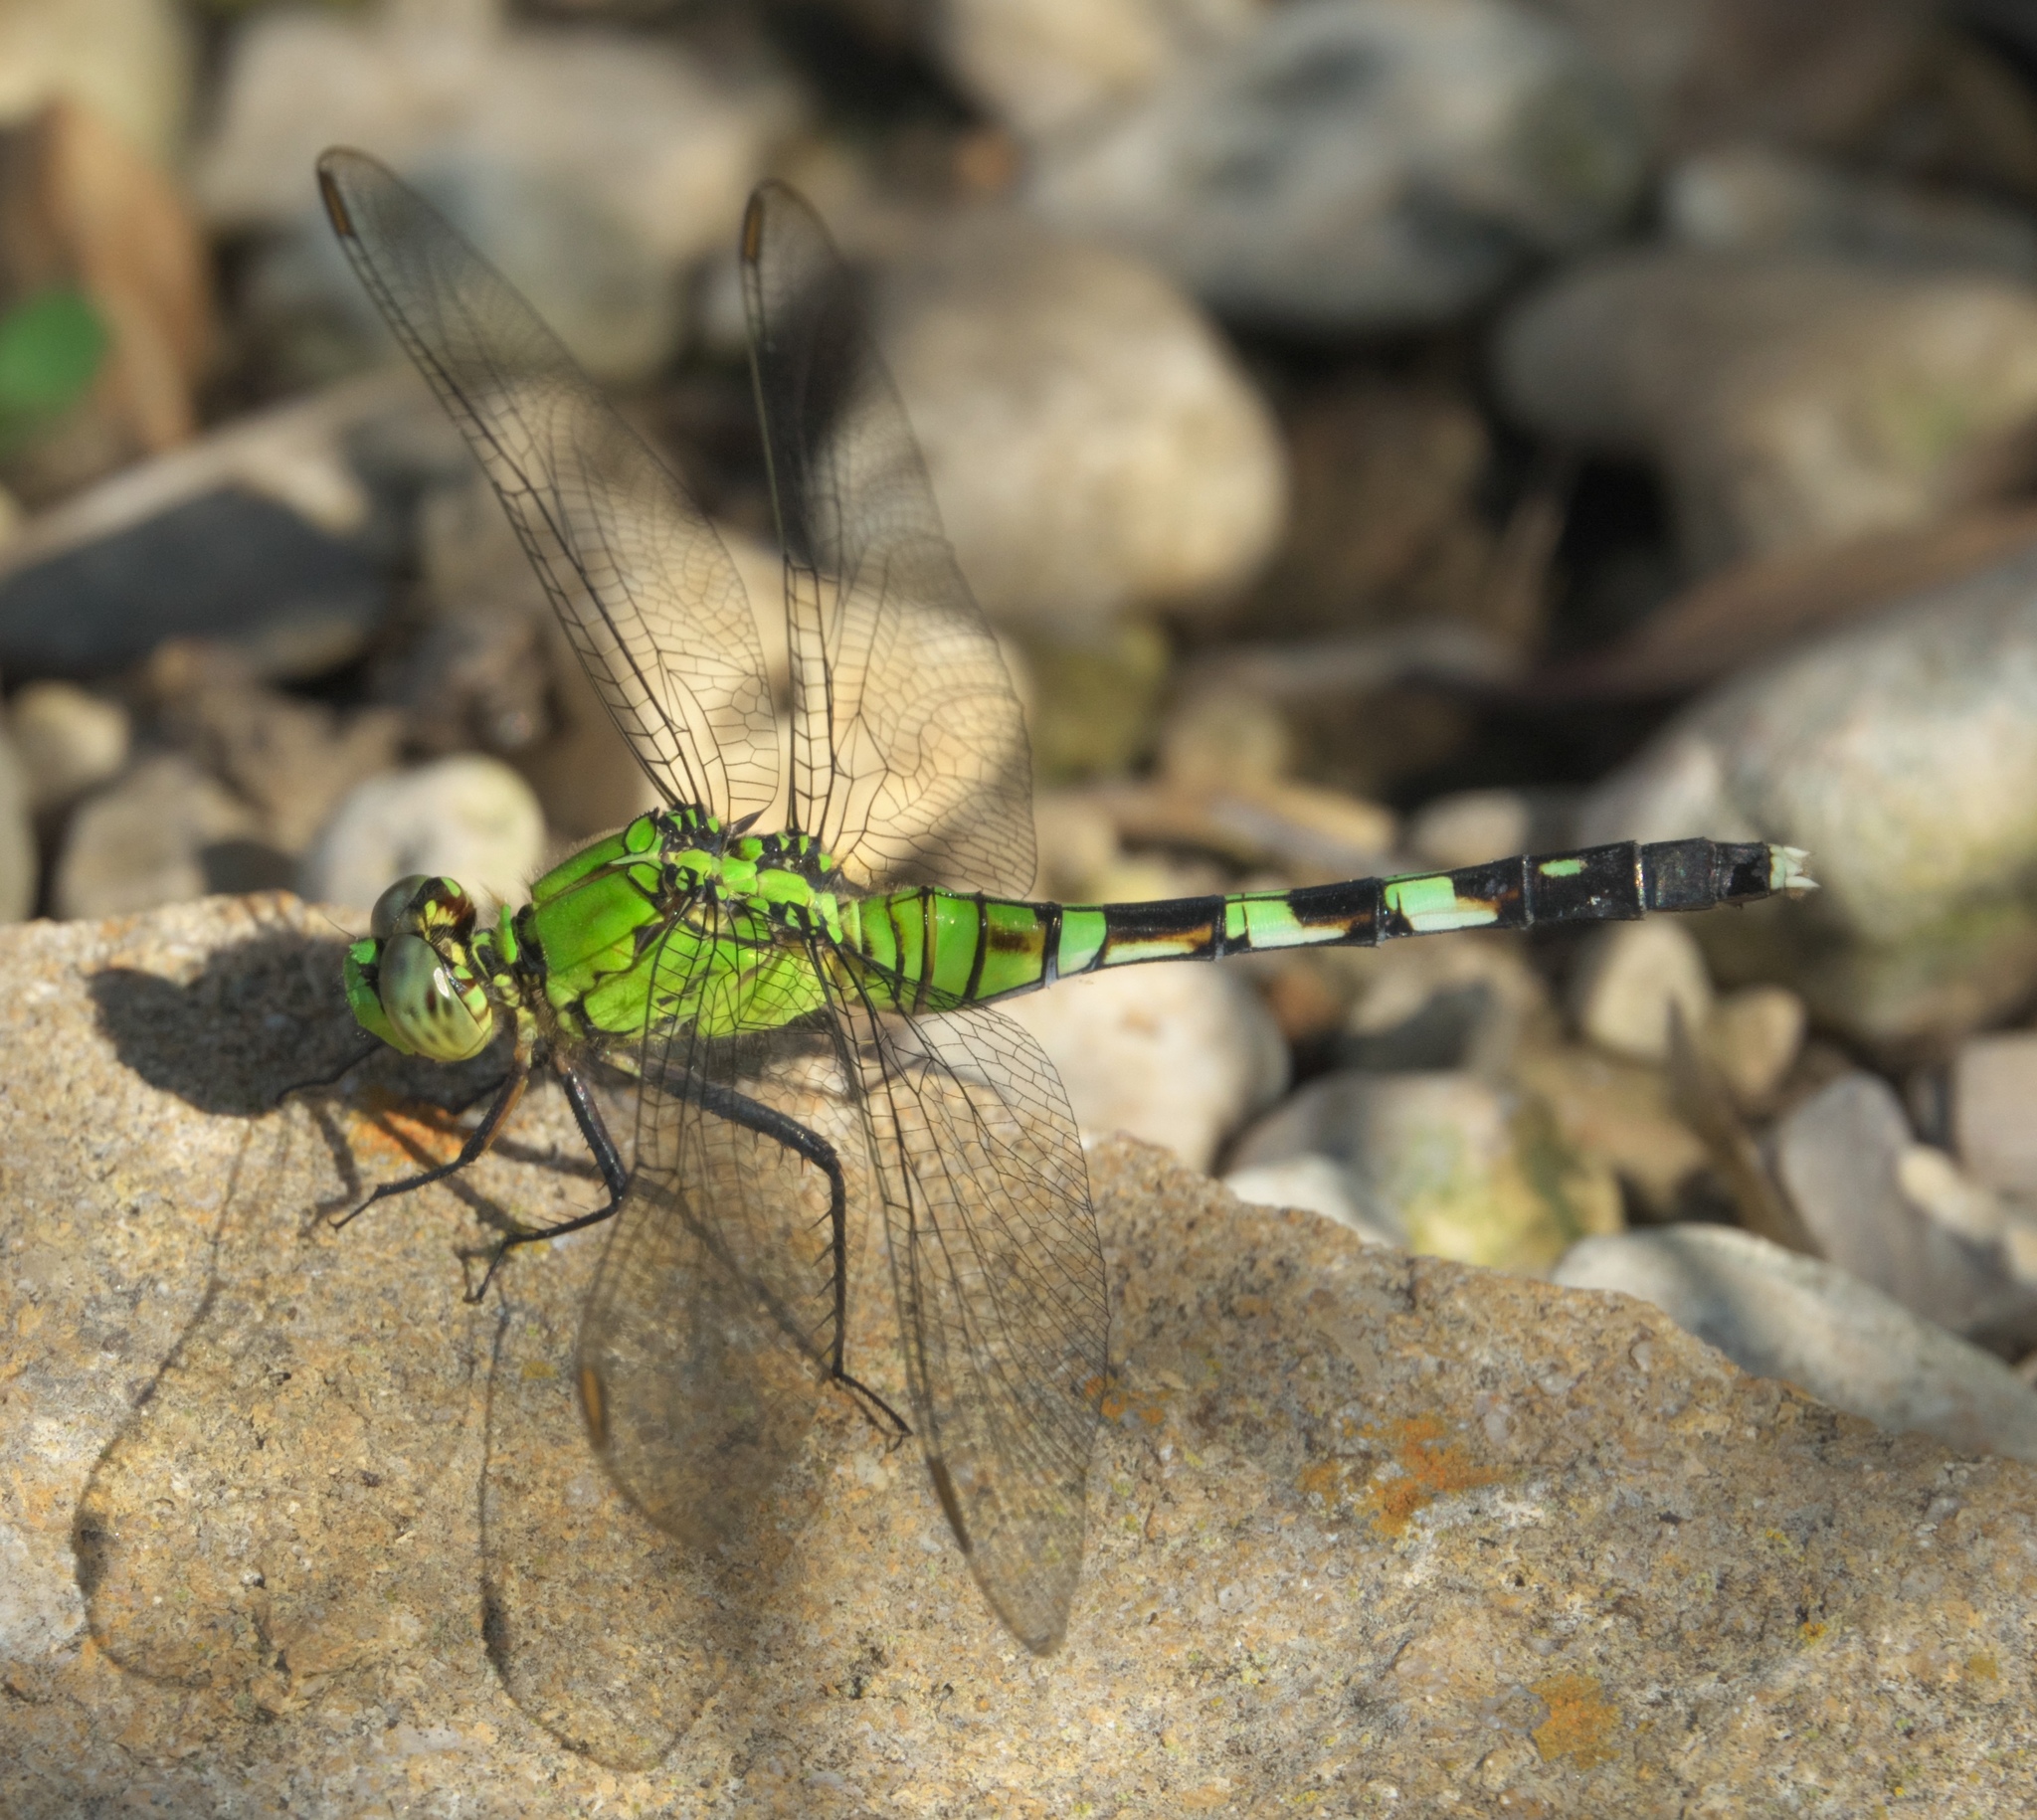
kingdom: Animalia
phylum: Arthropoda
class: Insecta
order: Odonata
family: Libellulidae
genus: Erythemis
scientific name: Erythemis simplicicollis
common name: Eastern pondhawk
